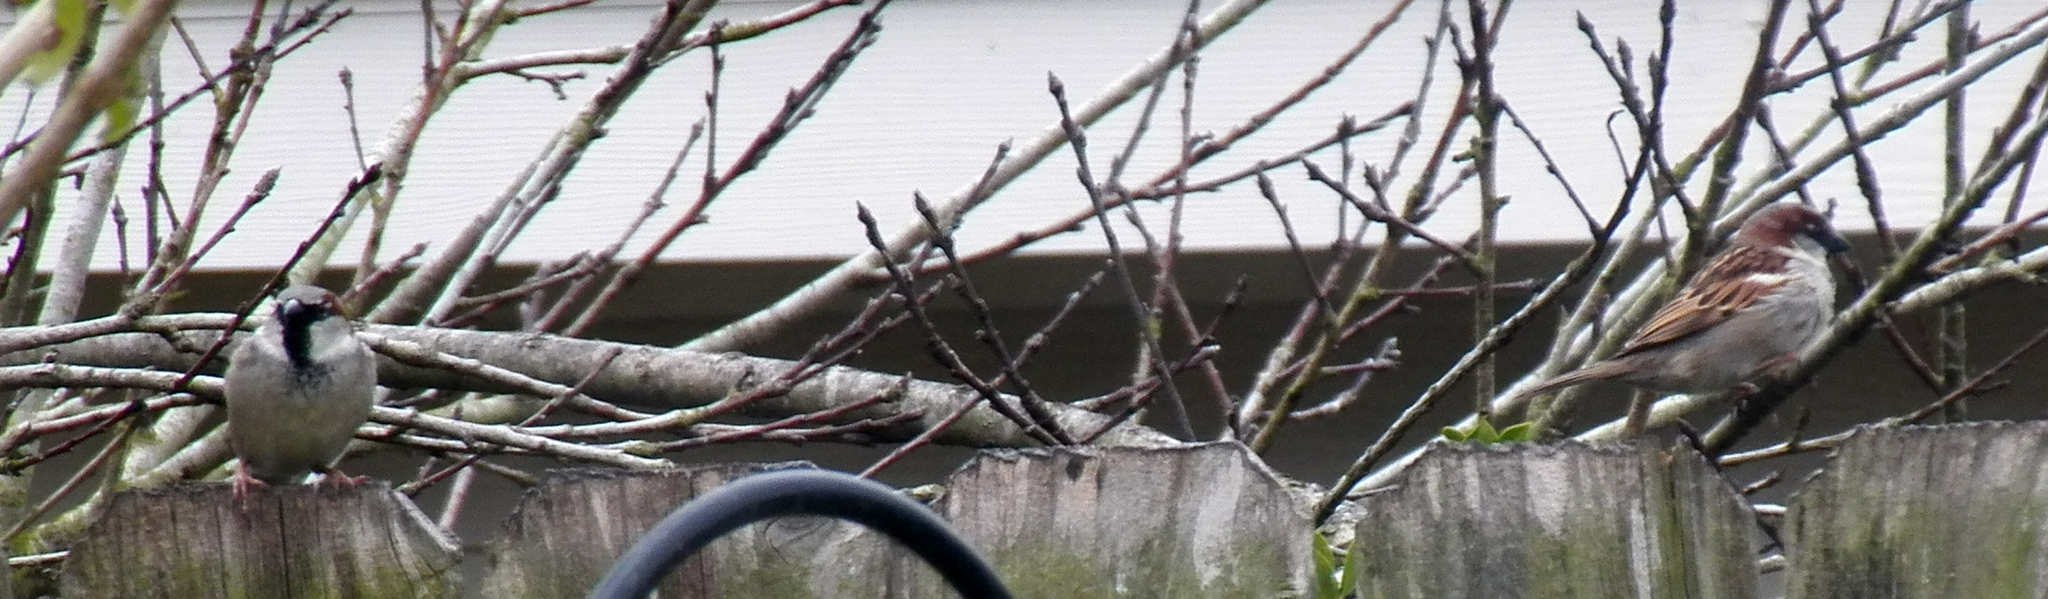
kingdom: Animalia
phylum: Chordata
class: Aves
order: Passeriformes
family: Passeridae
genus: Passer
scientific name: Passer domesticus
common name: House sparrow
